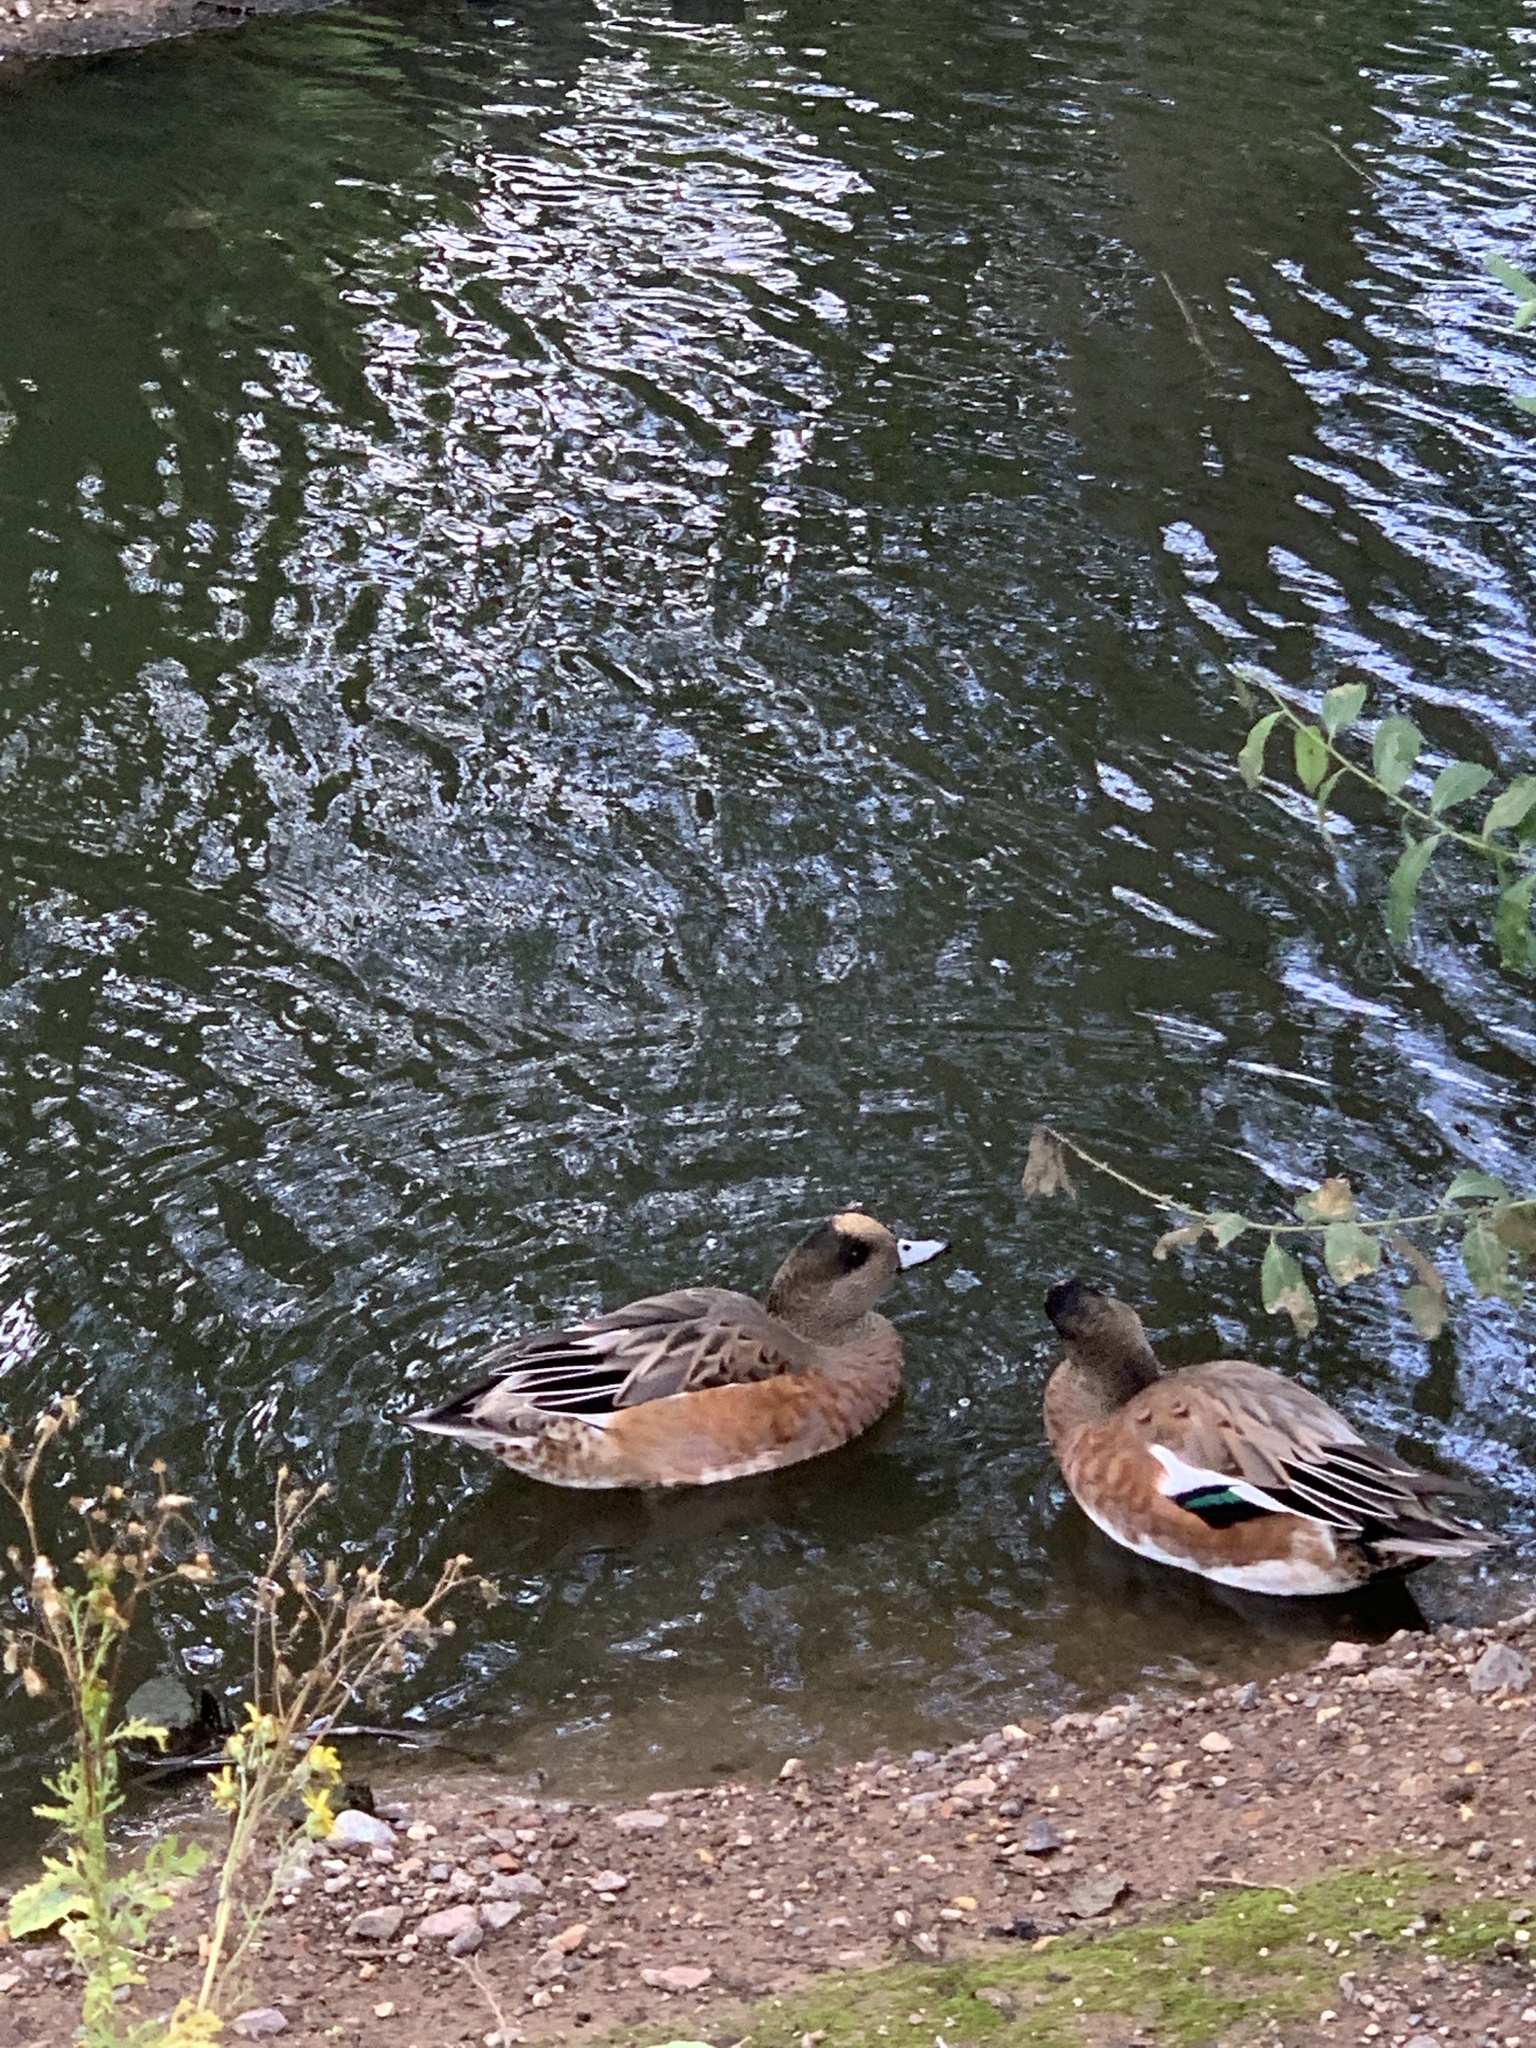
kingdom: Animalia
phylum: Chordata
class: Aves
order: Anseriformes
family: Anatidae
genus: Mareca
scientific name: Mareca penelope
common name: Eurasian wigeon
